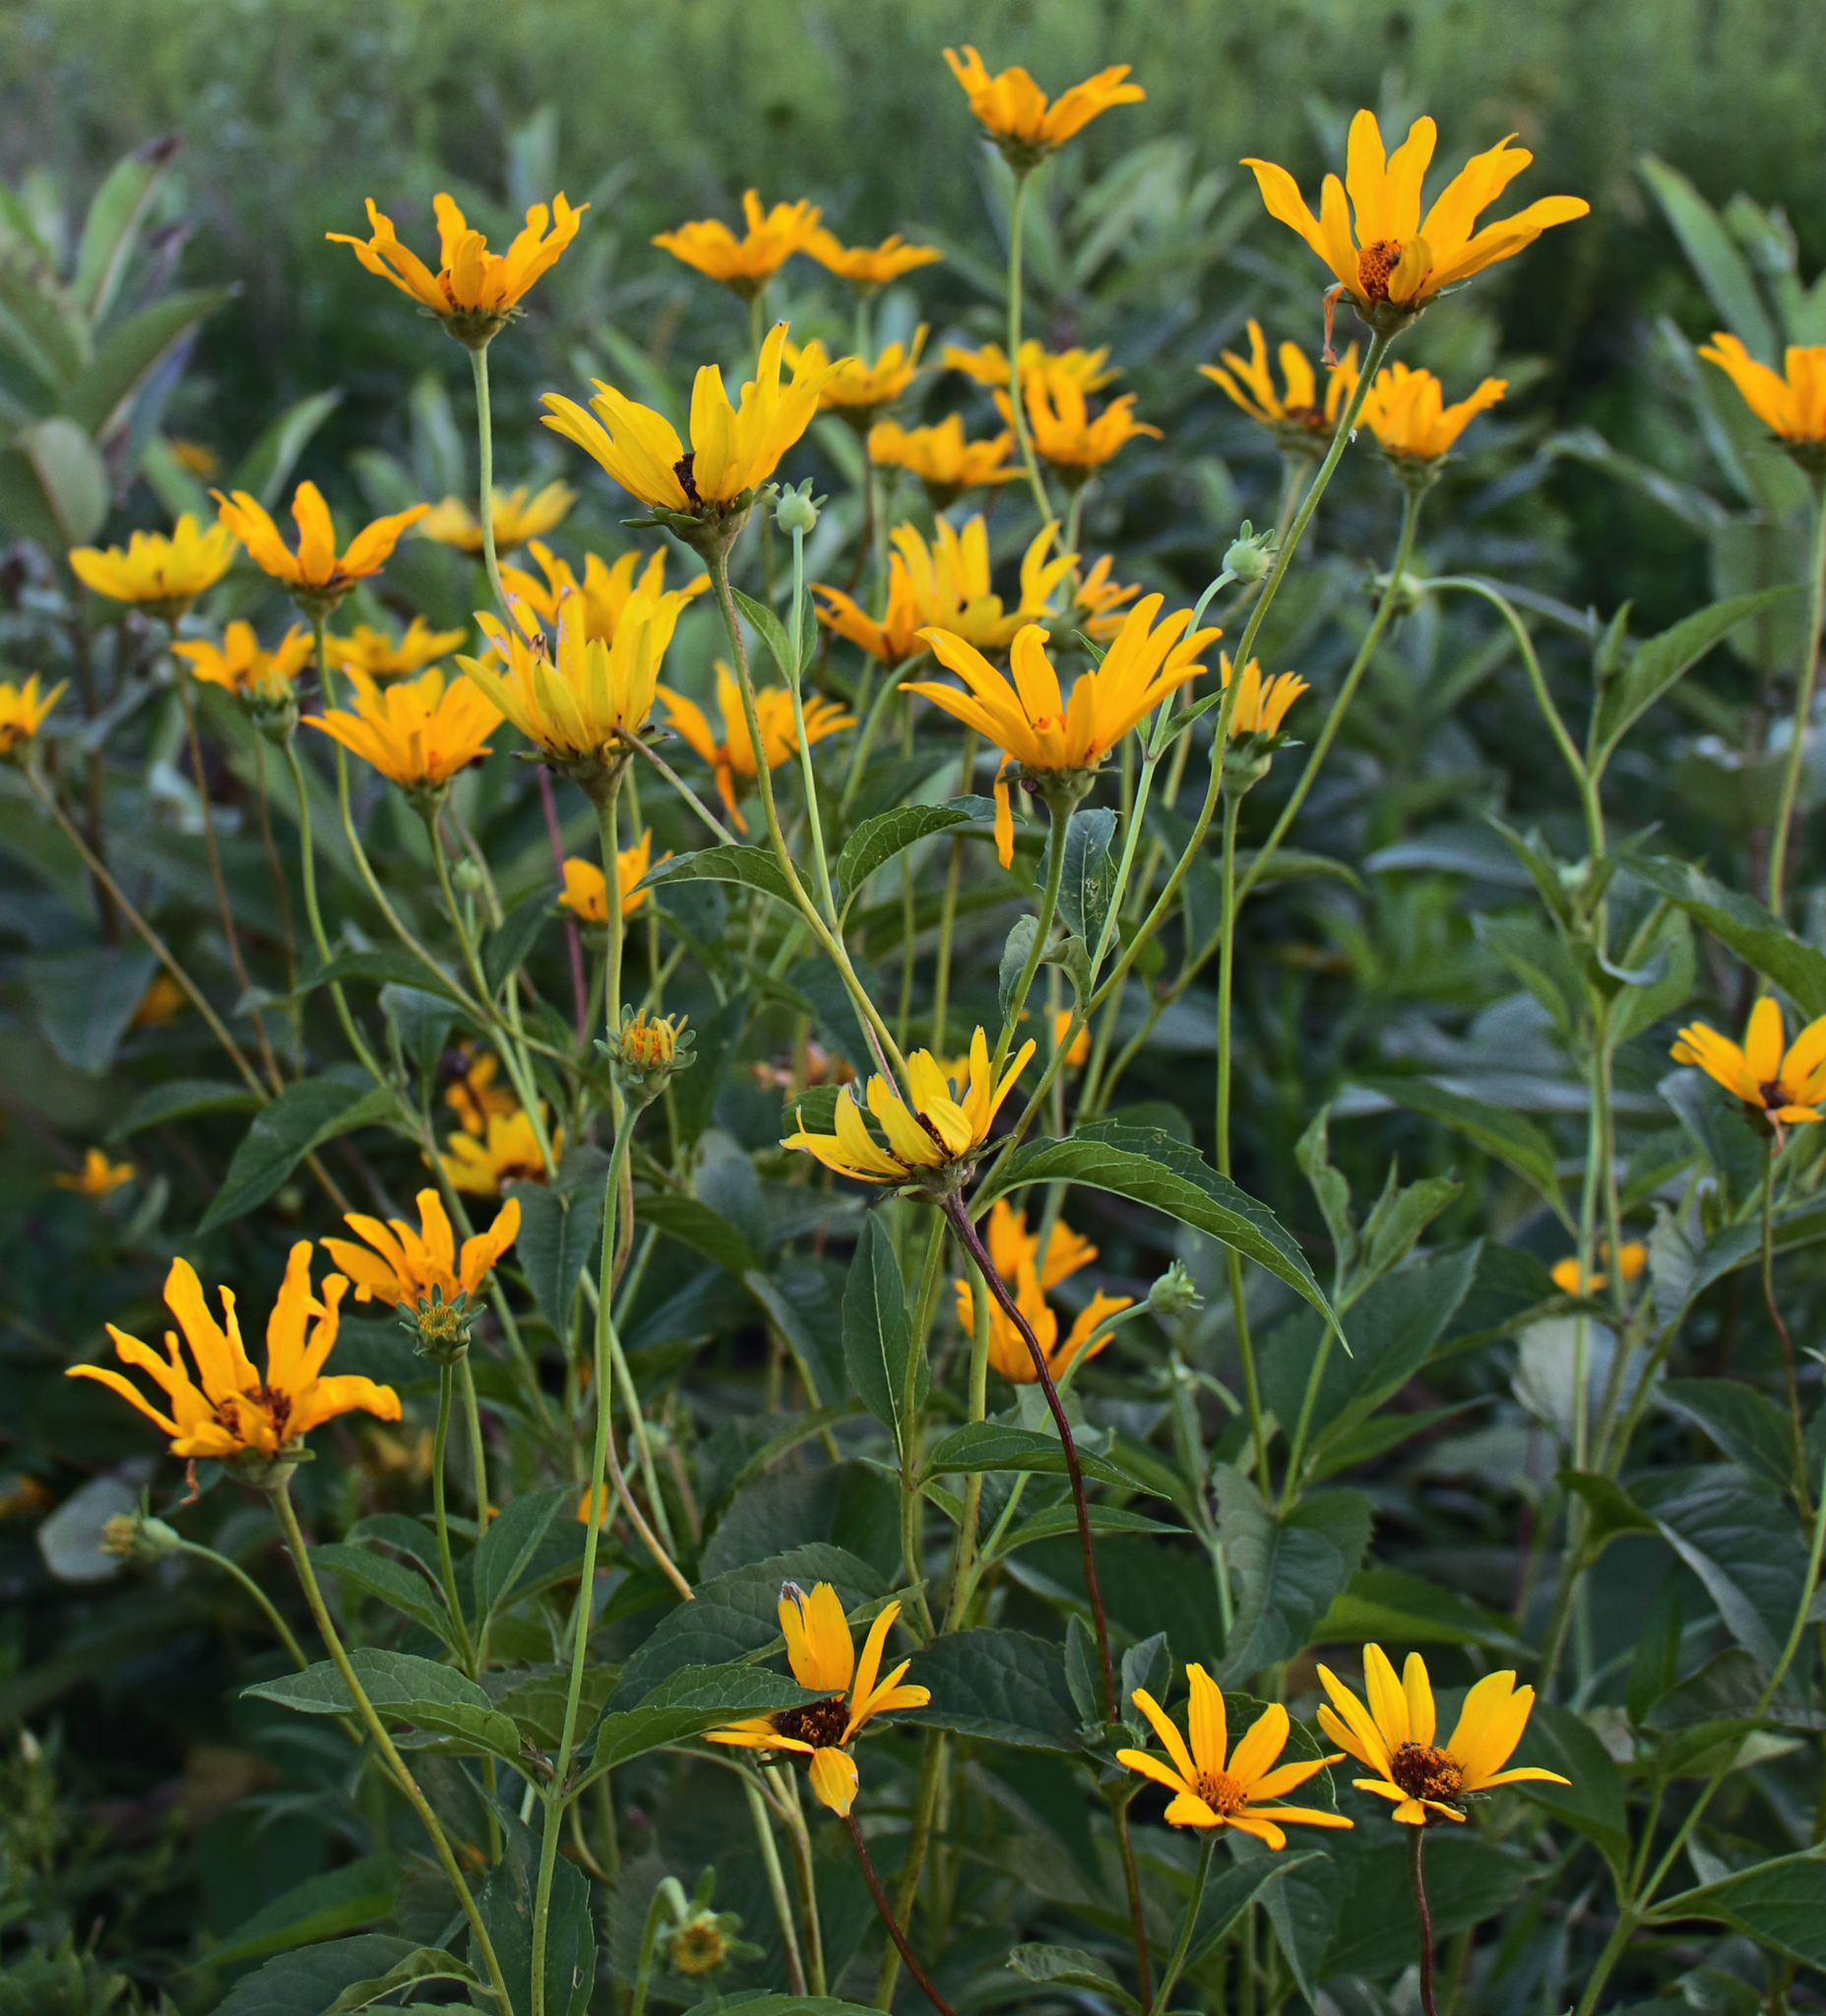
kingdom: Plantae
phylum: Tracheophyta
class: Magnoliopsida
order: Asterales
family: Asteraceae
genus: Heliopsis
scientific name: Heliopsis helianthoides
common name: False sunflower
